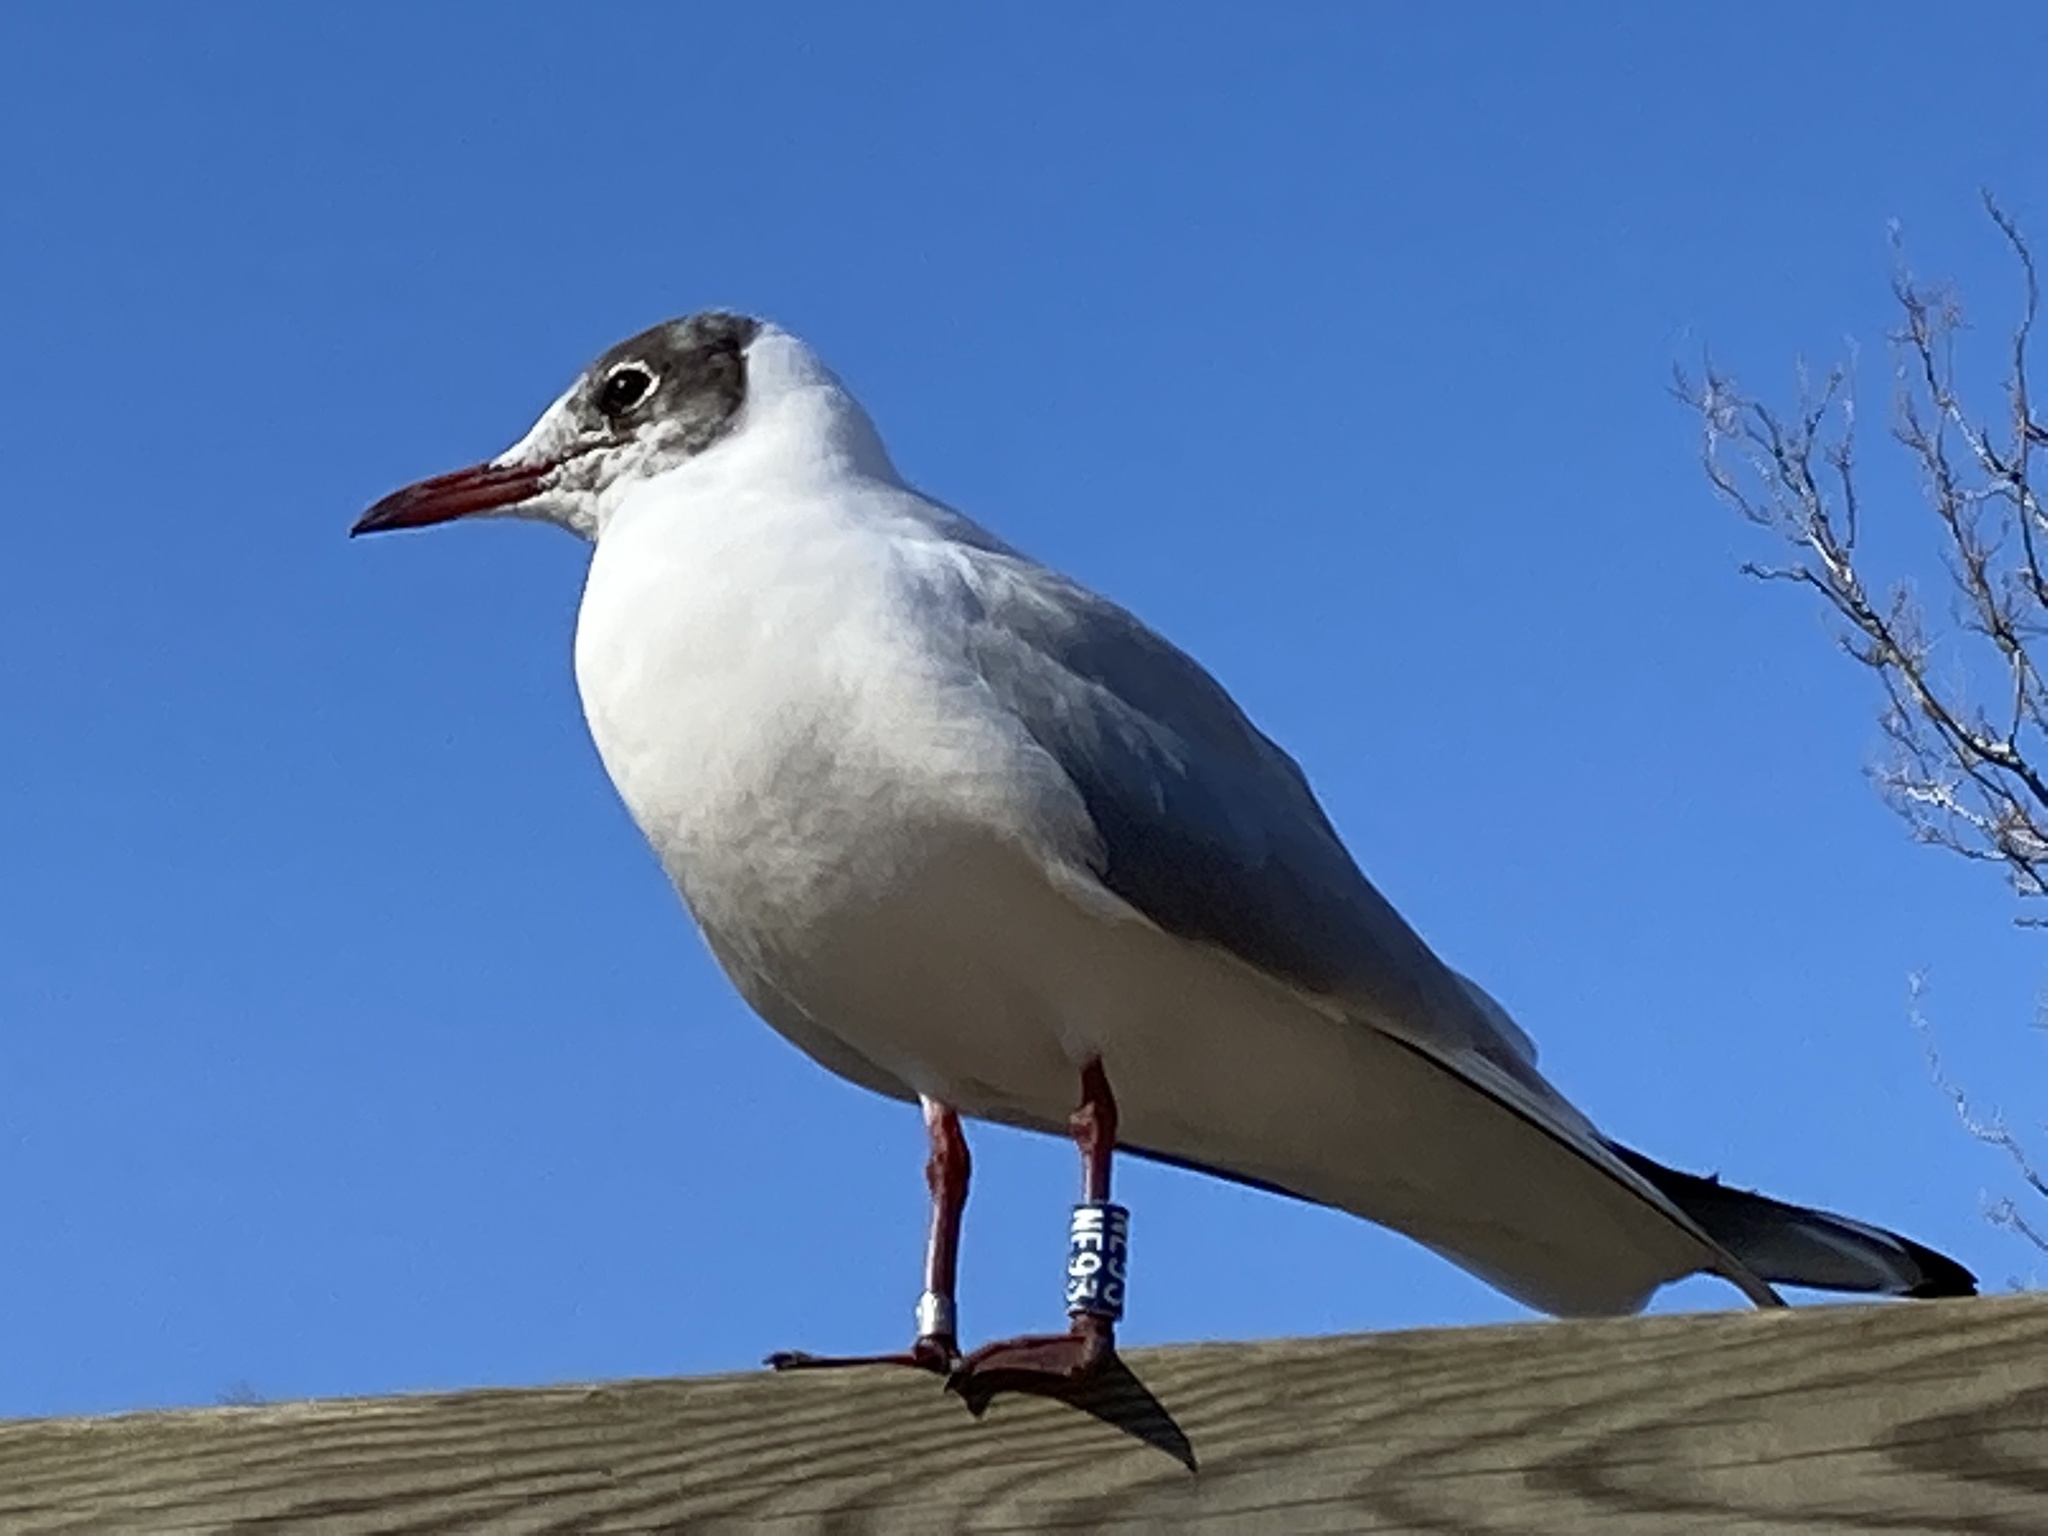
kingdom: Animalia
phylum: Chordata
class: Aves
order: Charadriiformes
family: Laridae
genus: Chroicocephalus
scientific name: Chroicocephalus ridibundus
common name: Black-headed gull
